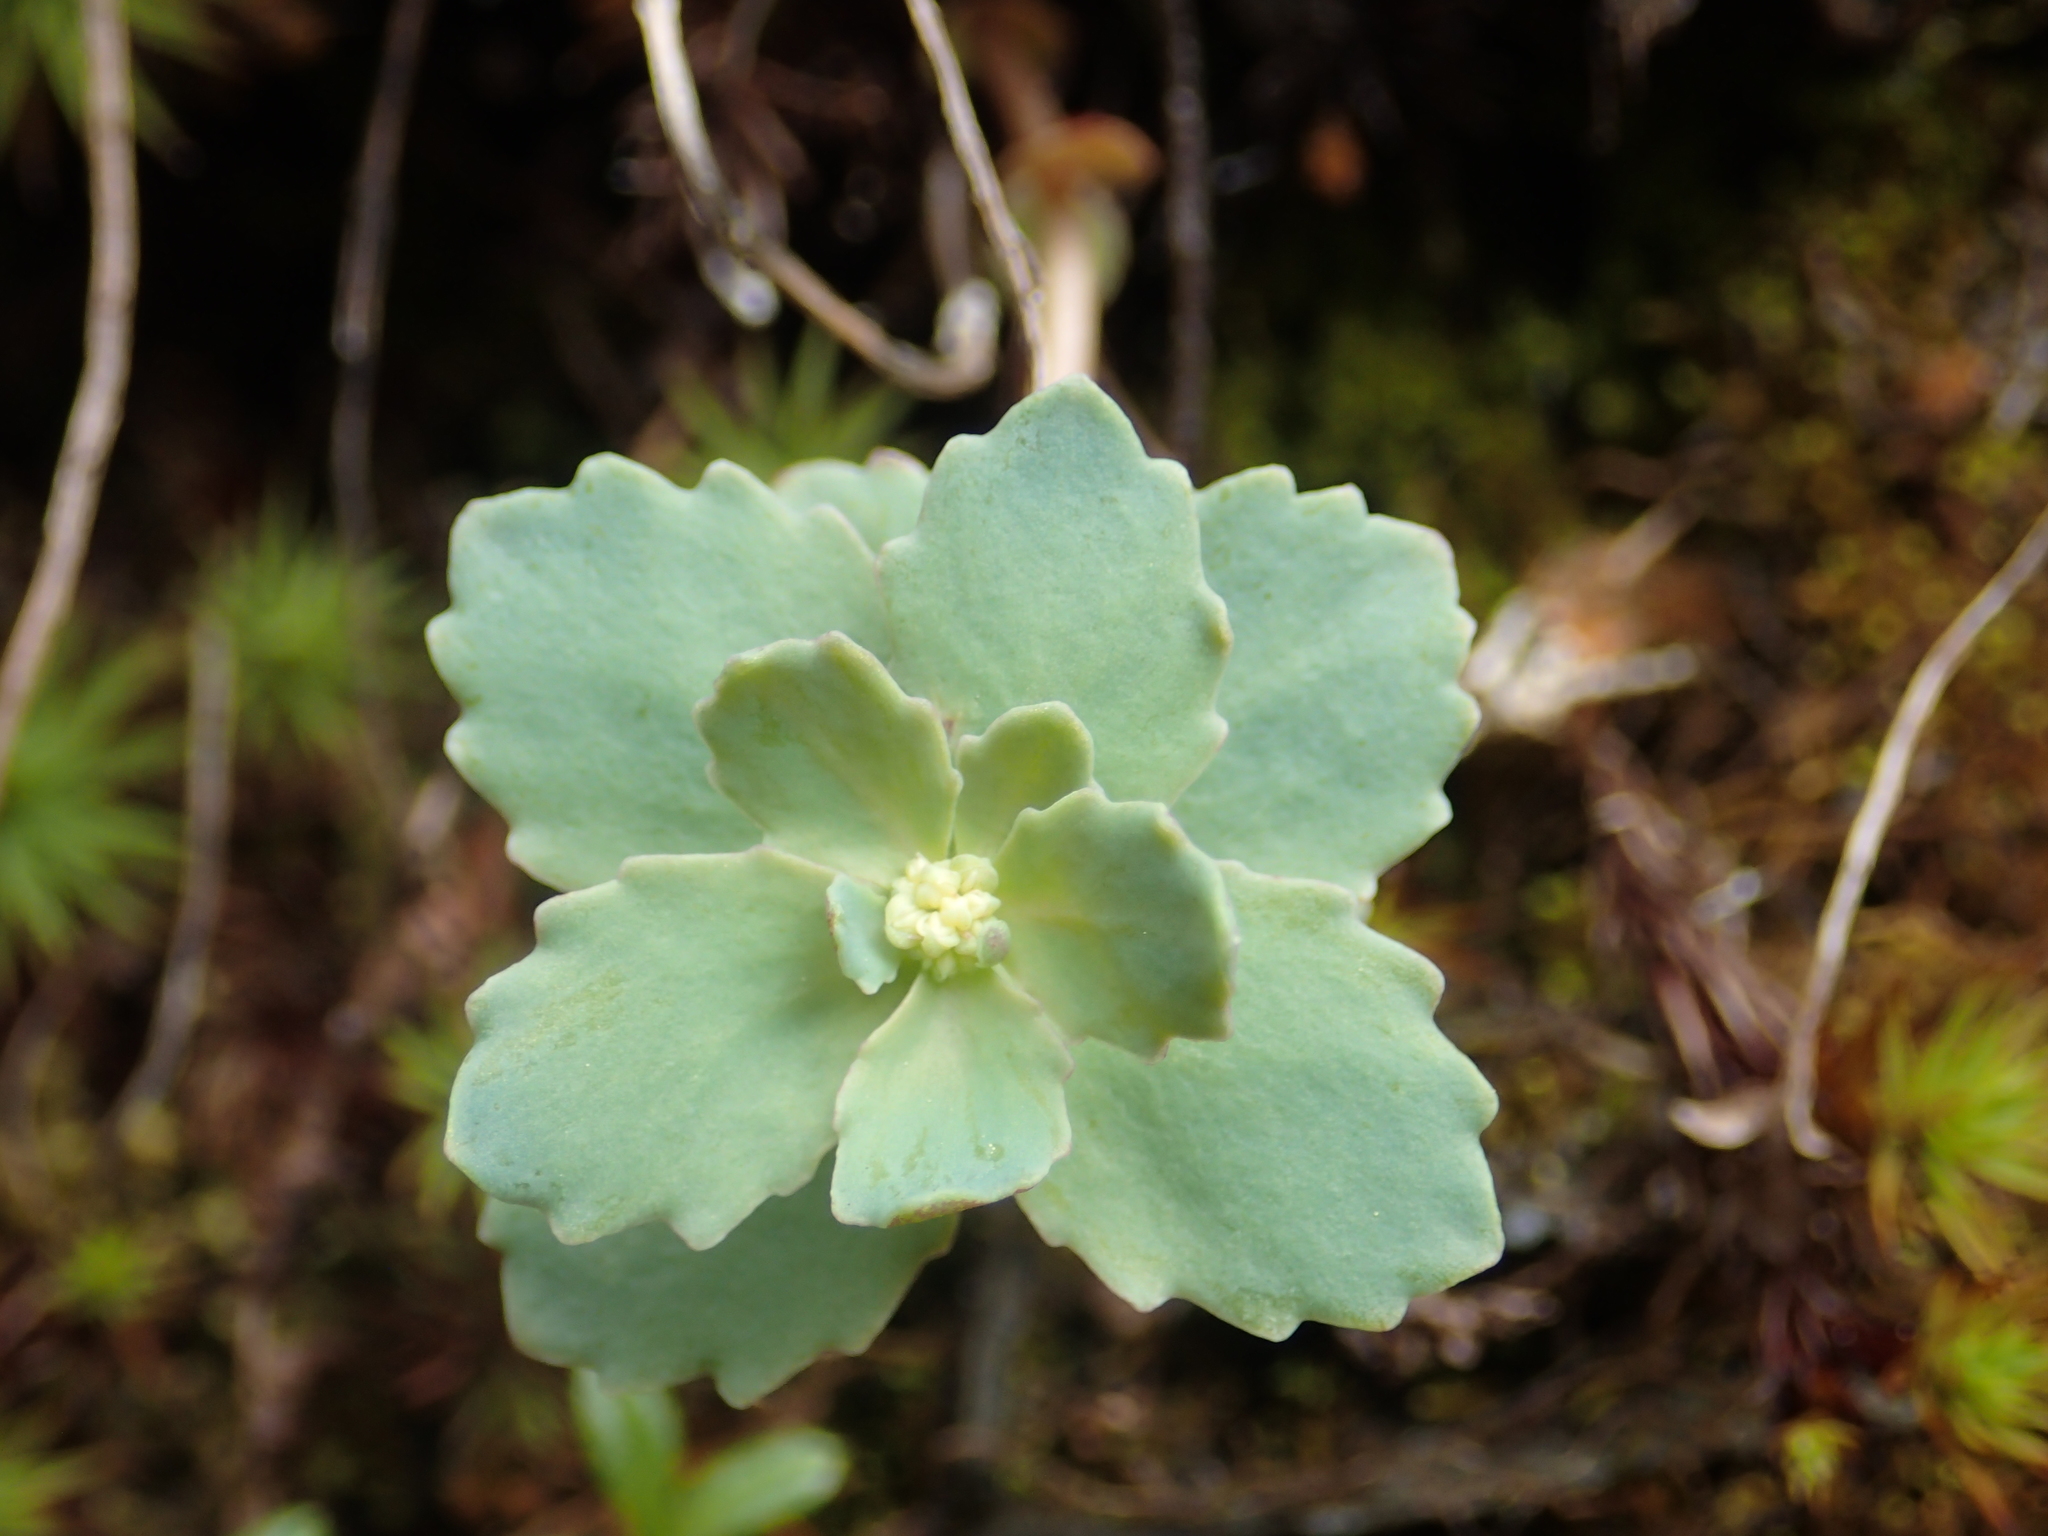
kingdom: Plantae
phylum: Tracheophyta
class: Magnoliopsida
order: Saxifragales
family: Crassulaceae
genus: Phedimus
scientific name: Phedimus subcapitatus
